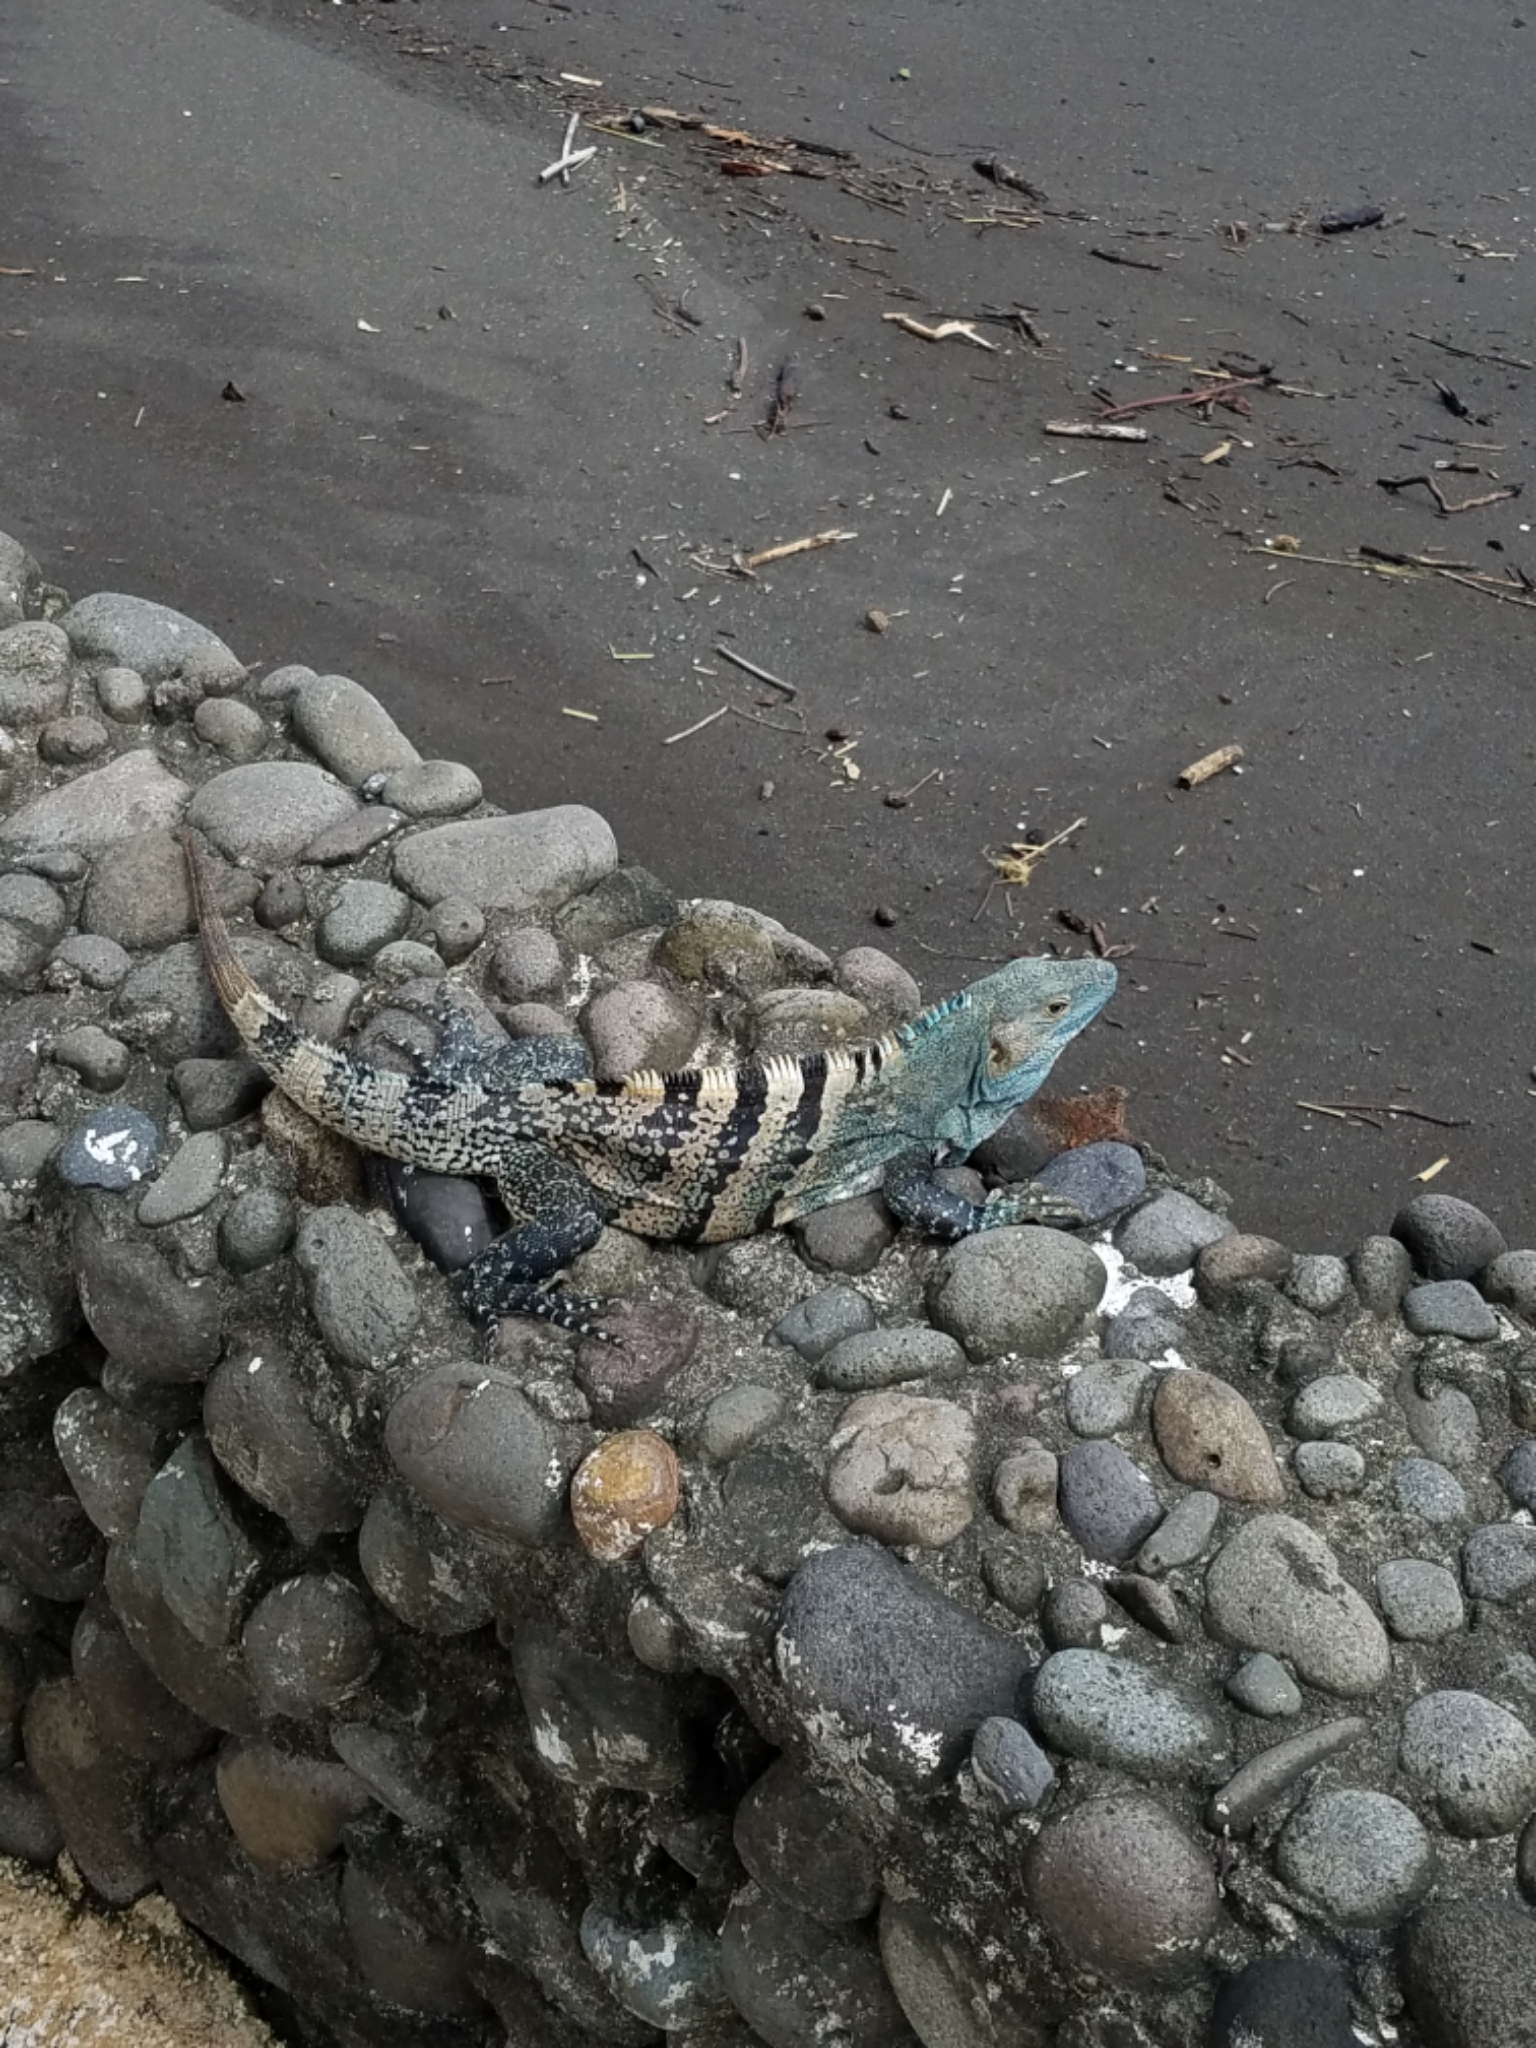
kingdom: Animalia
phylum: Chordata
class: Squamata
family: Iguanidae
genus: Ctenosaura
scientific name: Ctenosaura similis
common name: Black spiny-tailed iguana
